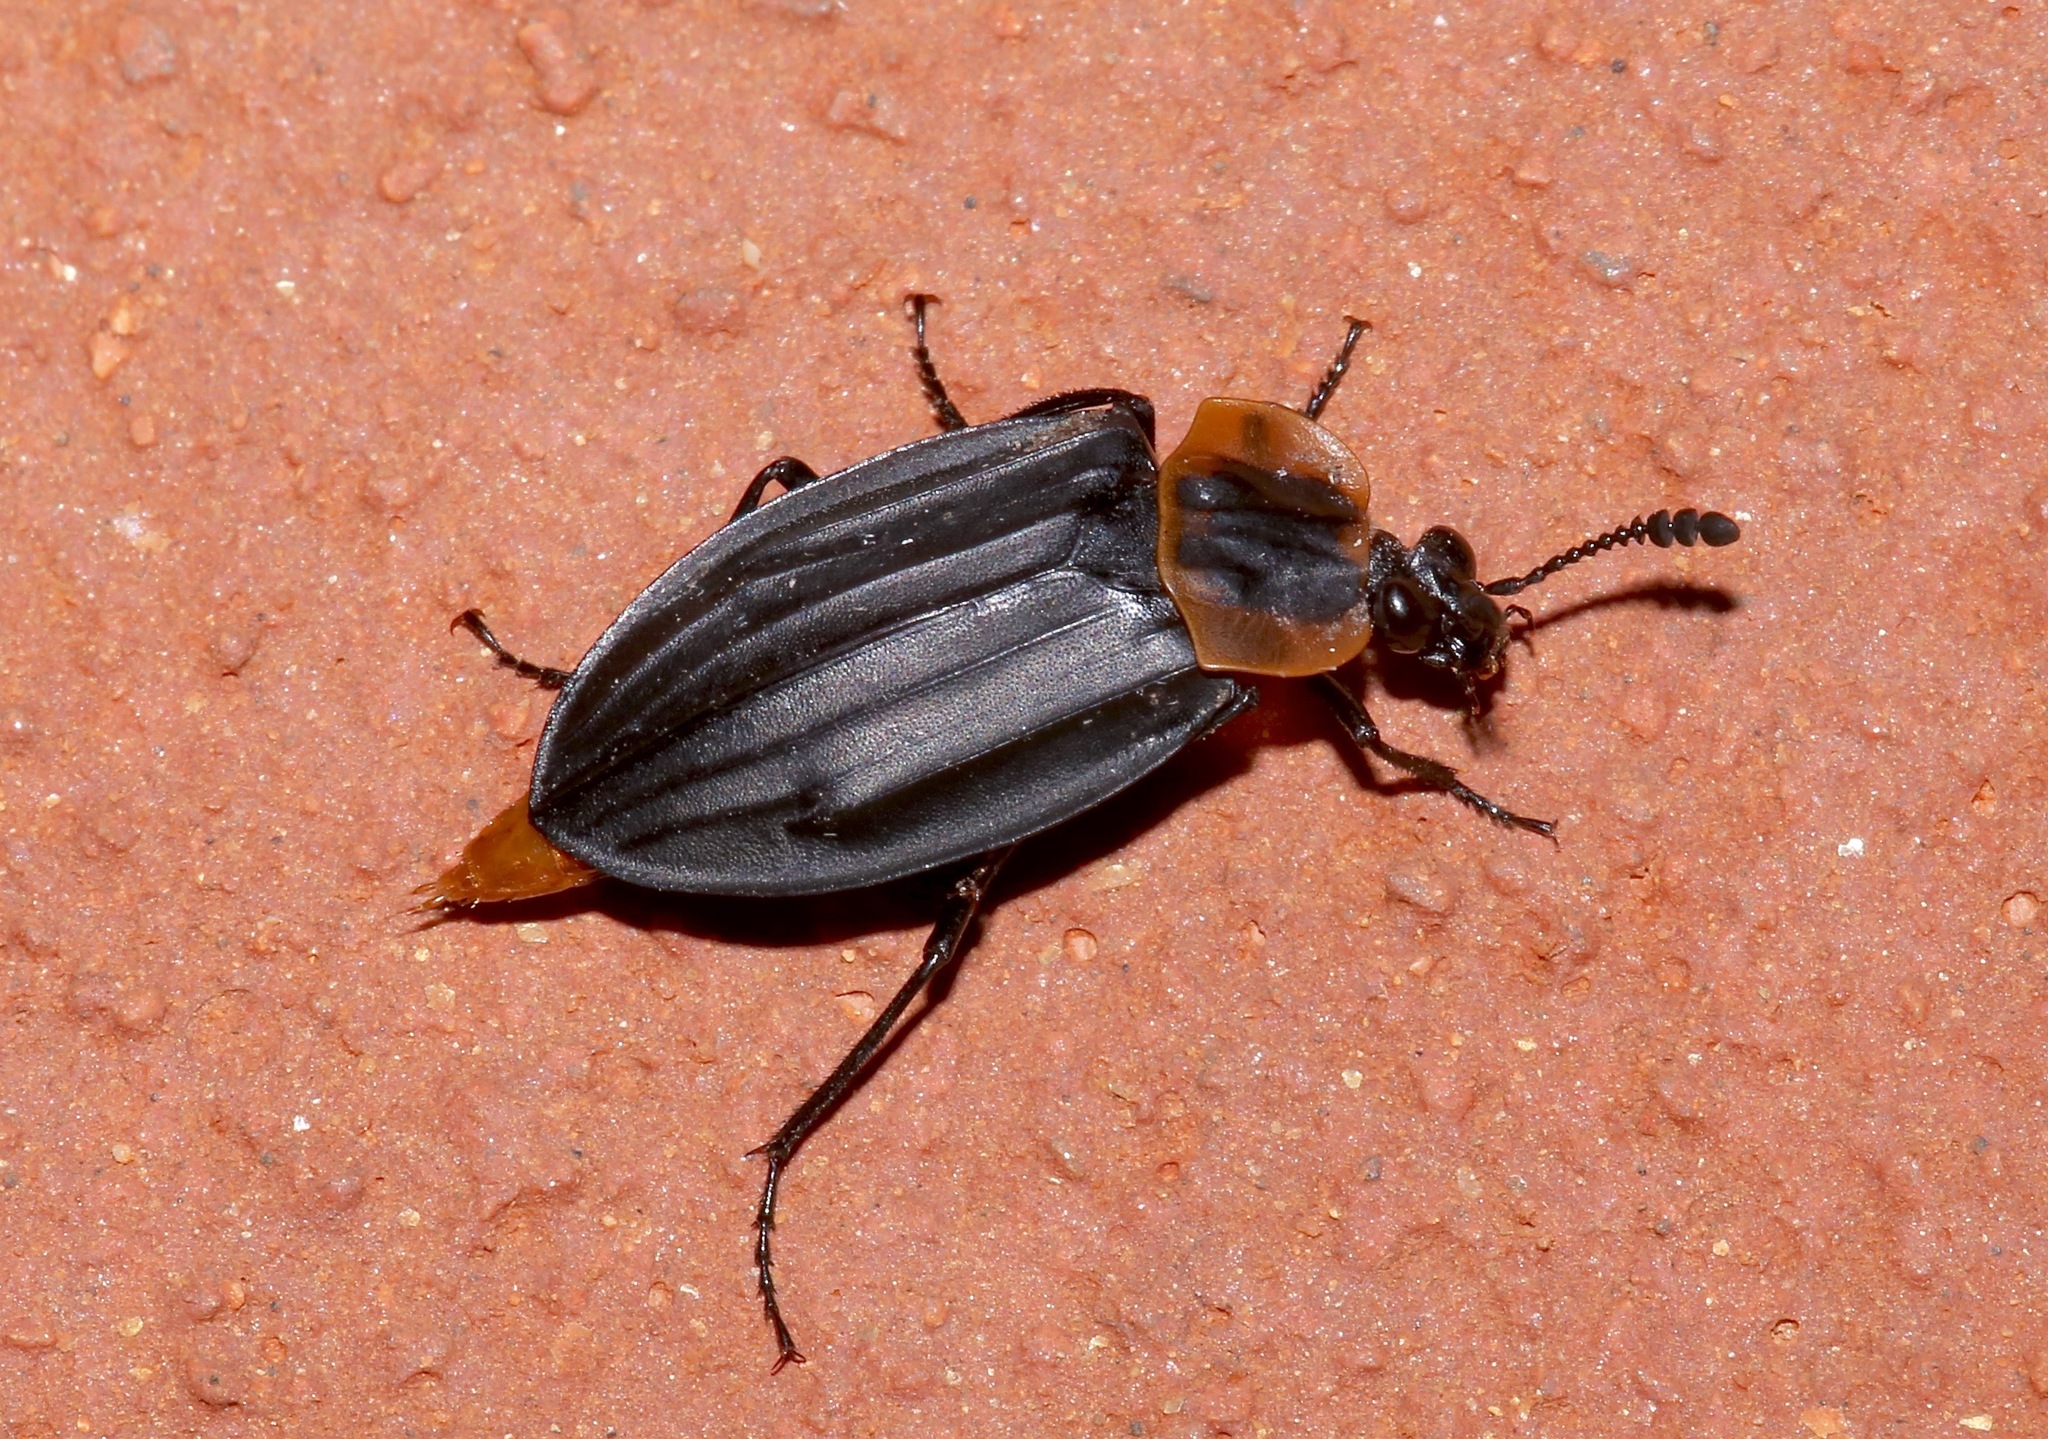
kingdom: Animalia
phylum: Arthropoda
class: Insecta
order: Coleoptera
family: Staphylinidae
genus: Oxelytrum
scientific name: Oxelytrum discicolle
